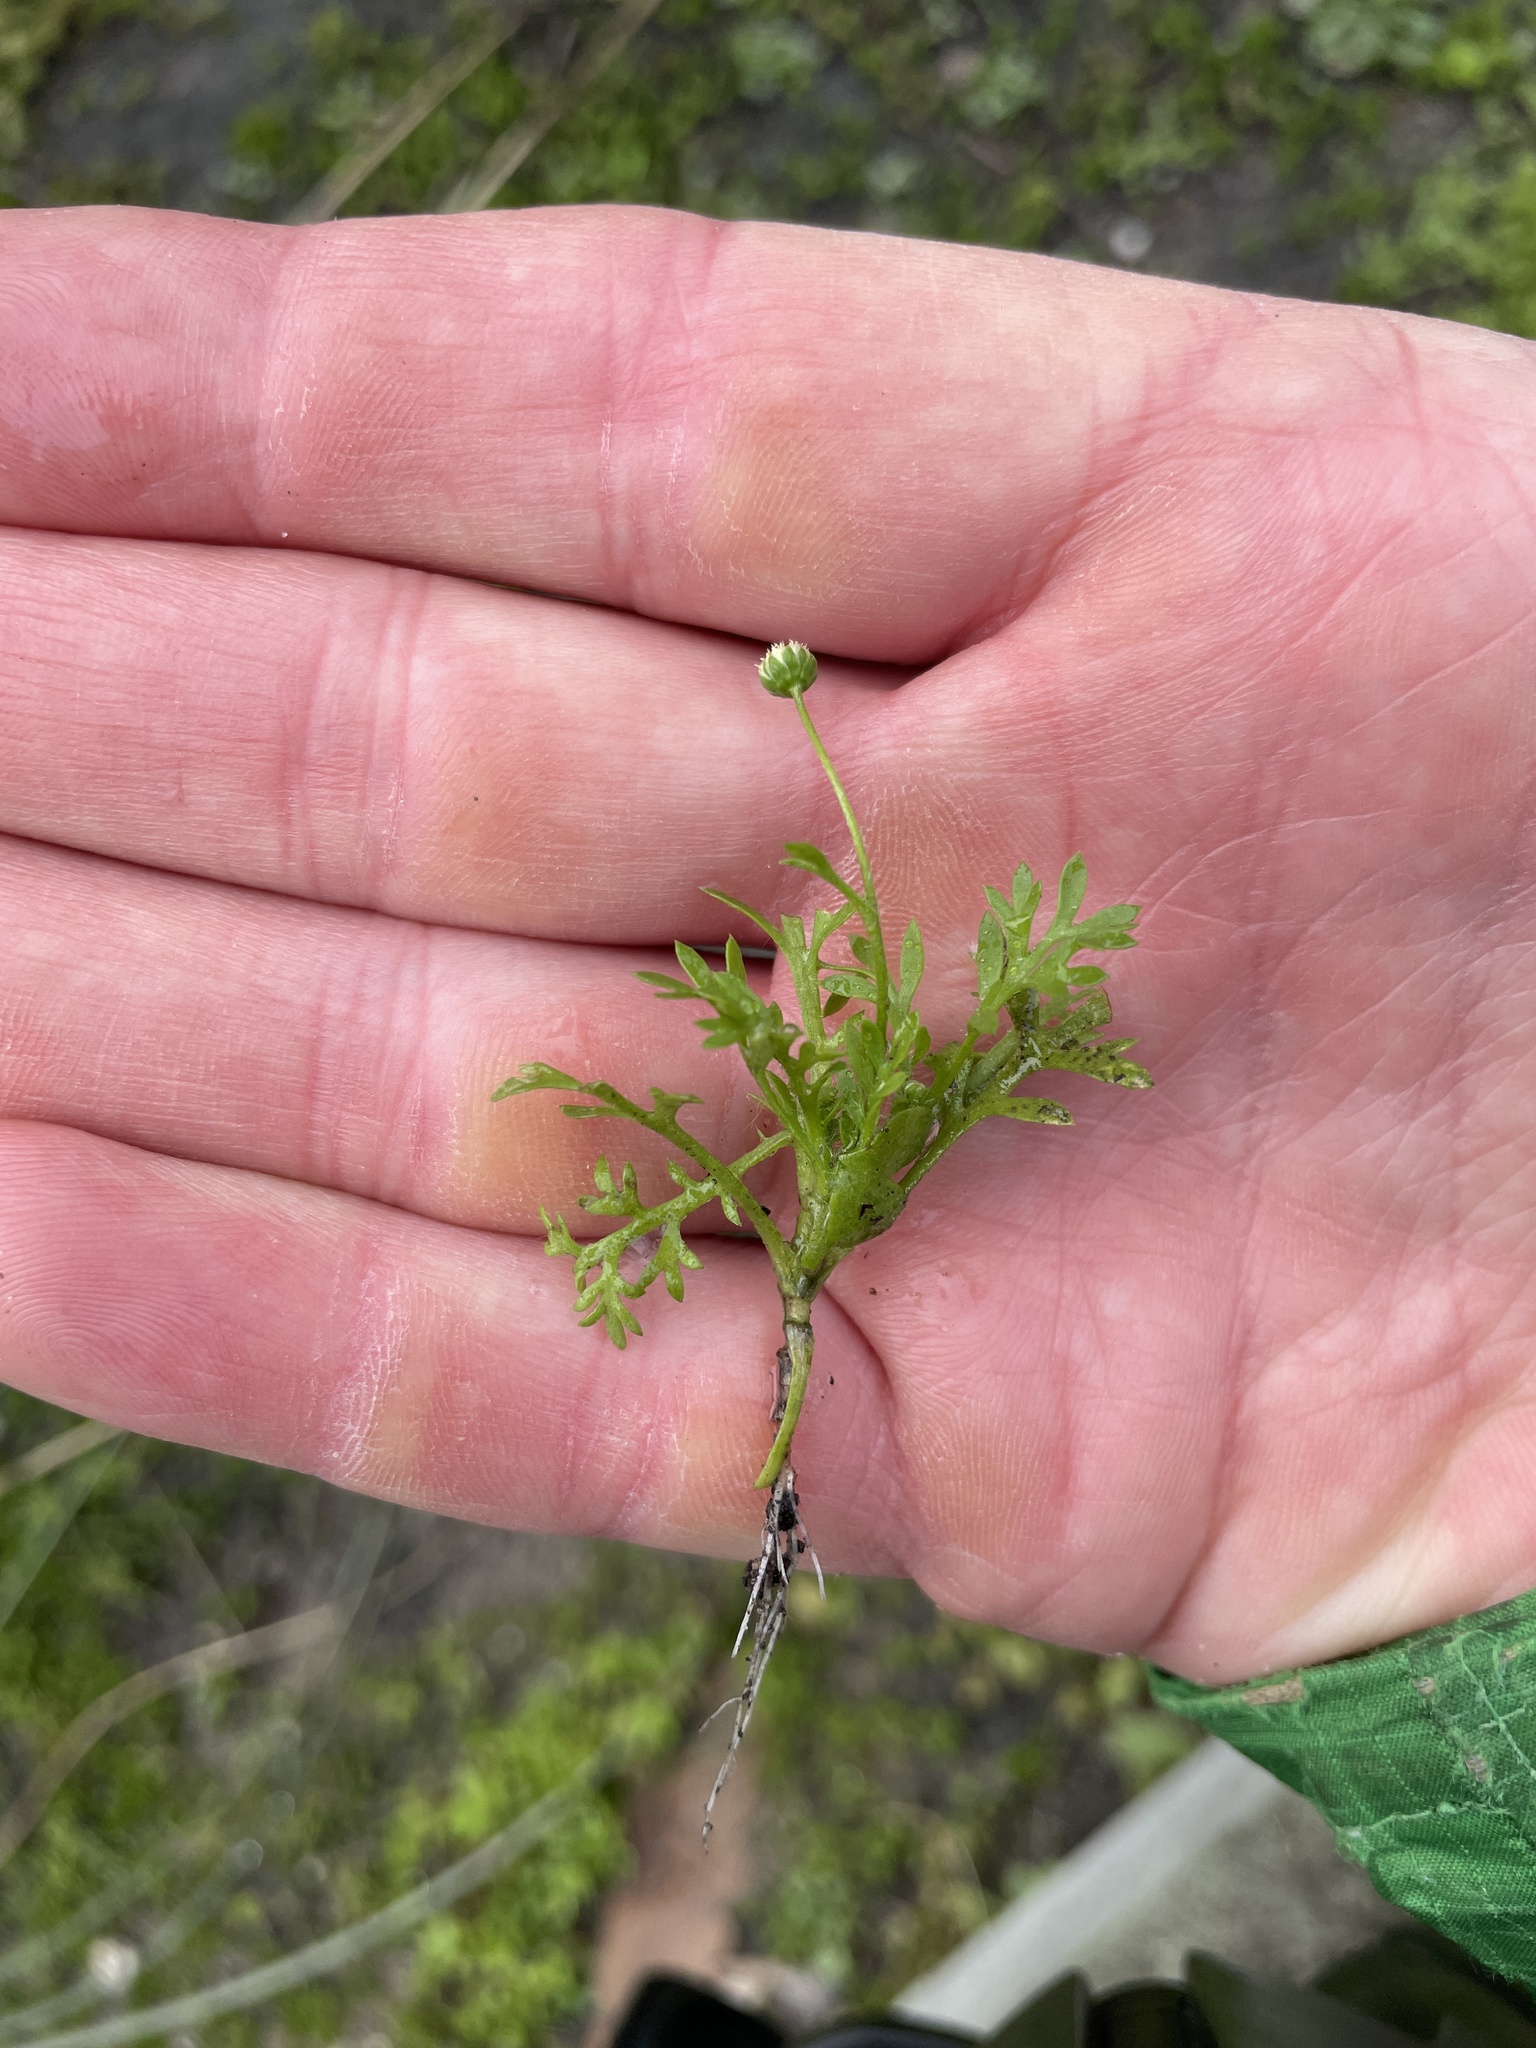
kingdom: Plantae
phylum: Tracheophyta
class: Magnoliopsida
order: Asterales
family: Asteraceae
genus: Cotula
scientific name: Cotula australis
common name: Australian waterbuttons
